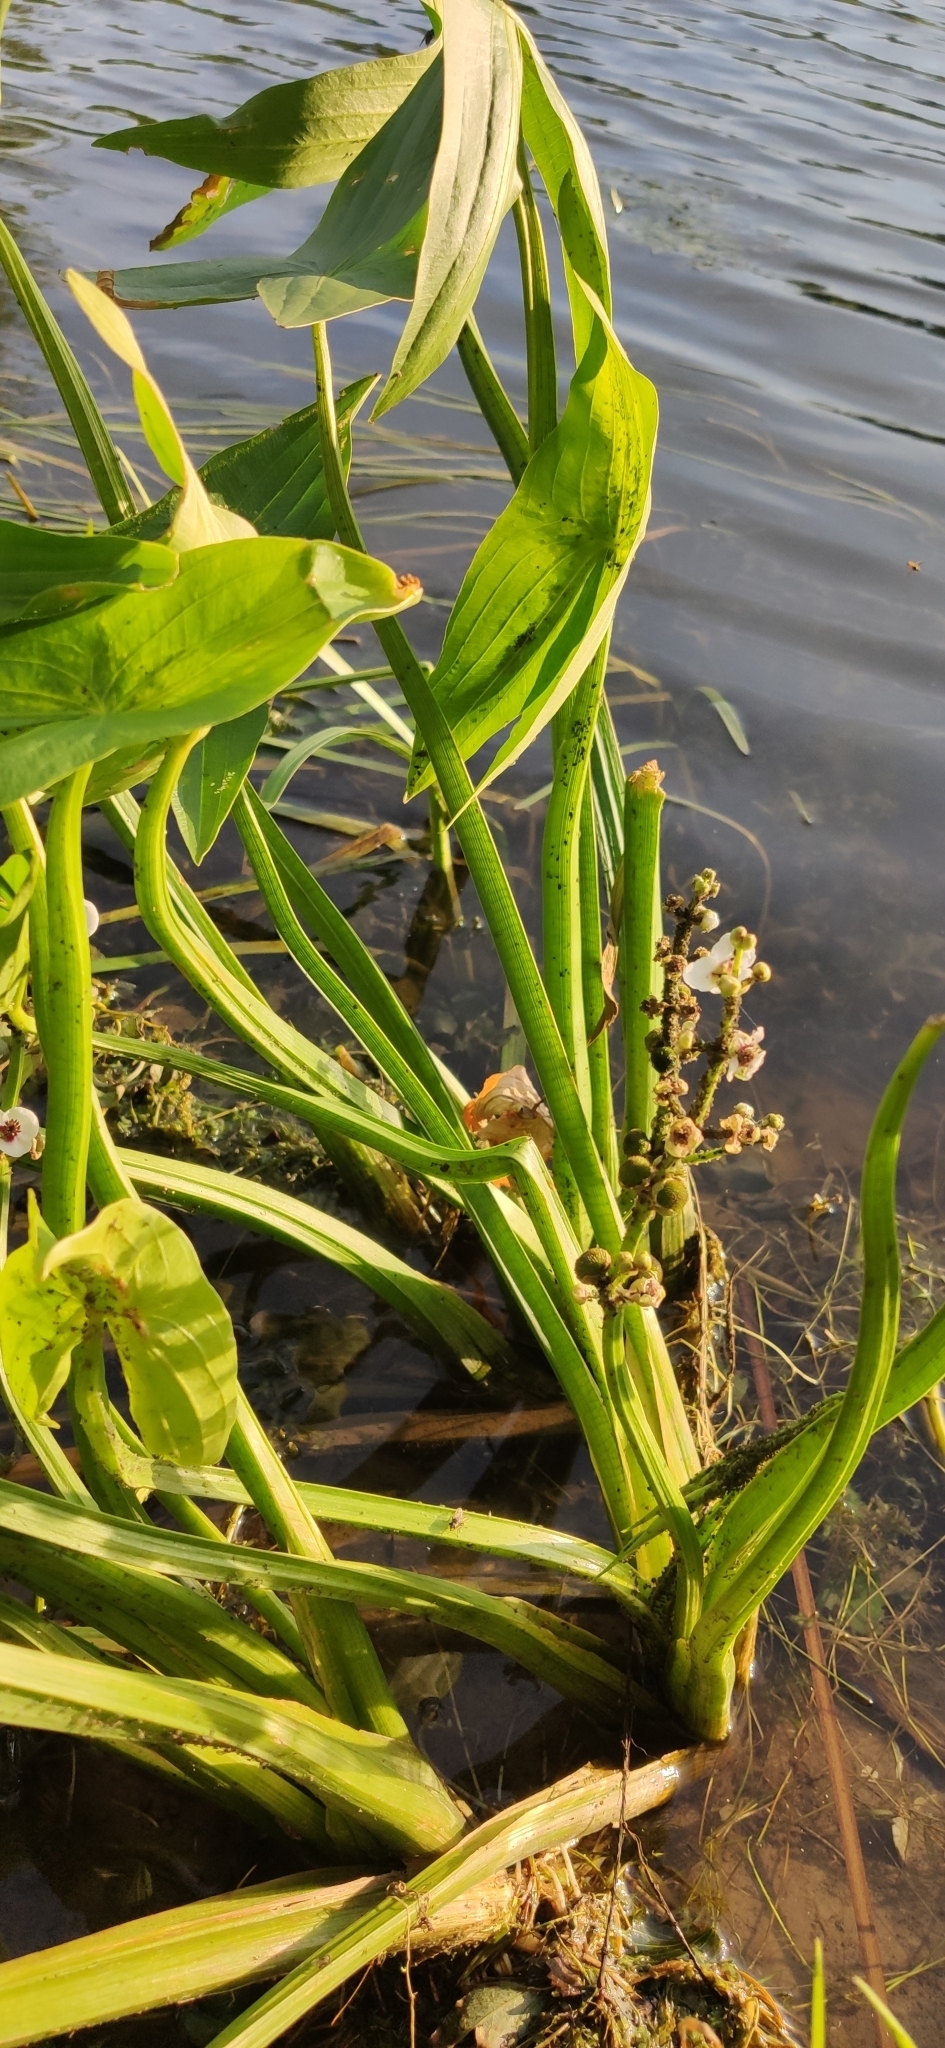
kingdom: Plantae
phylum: Tracheophyta
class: Liliopsida
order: Alismatales
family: Alismataceae
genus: Sagittaria
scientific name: Sagittaria sagittifolia
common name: Arrowhead
